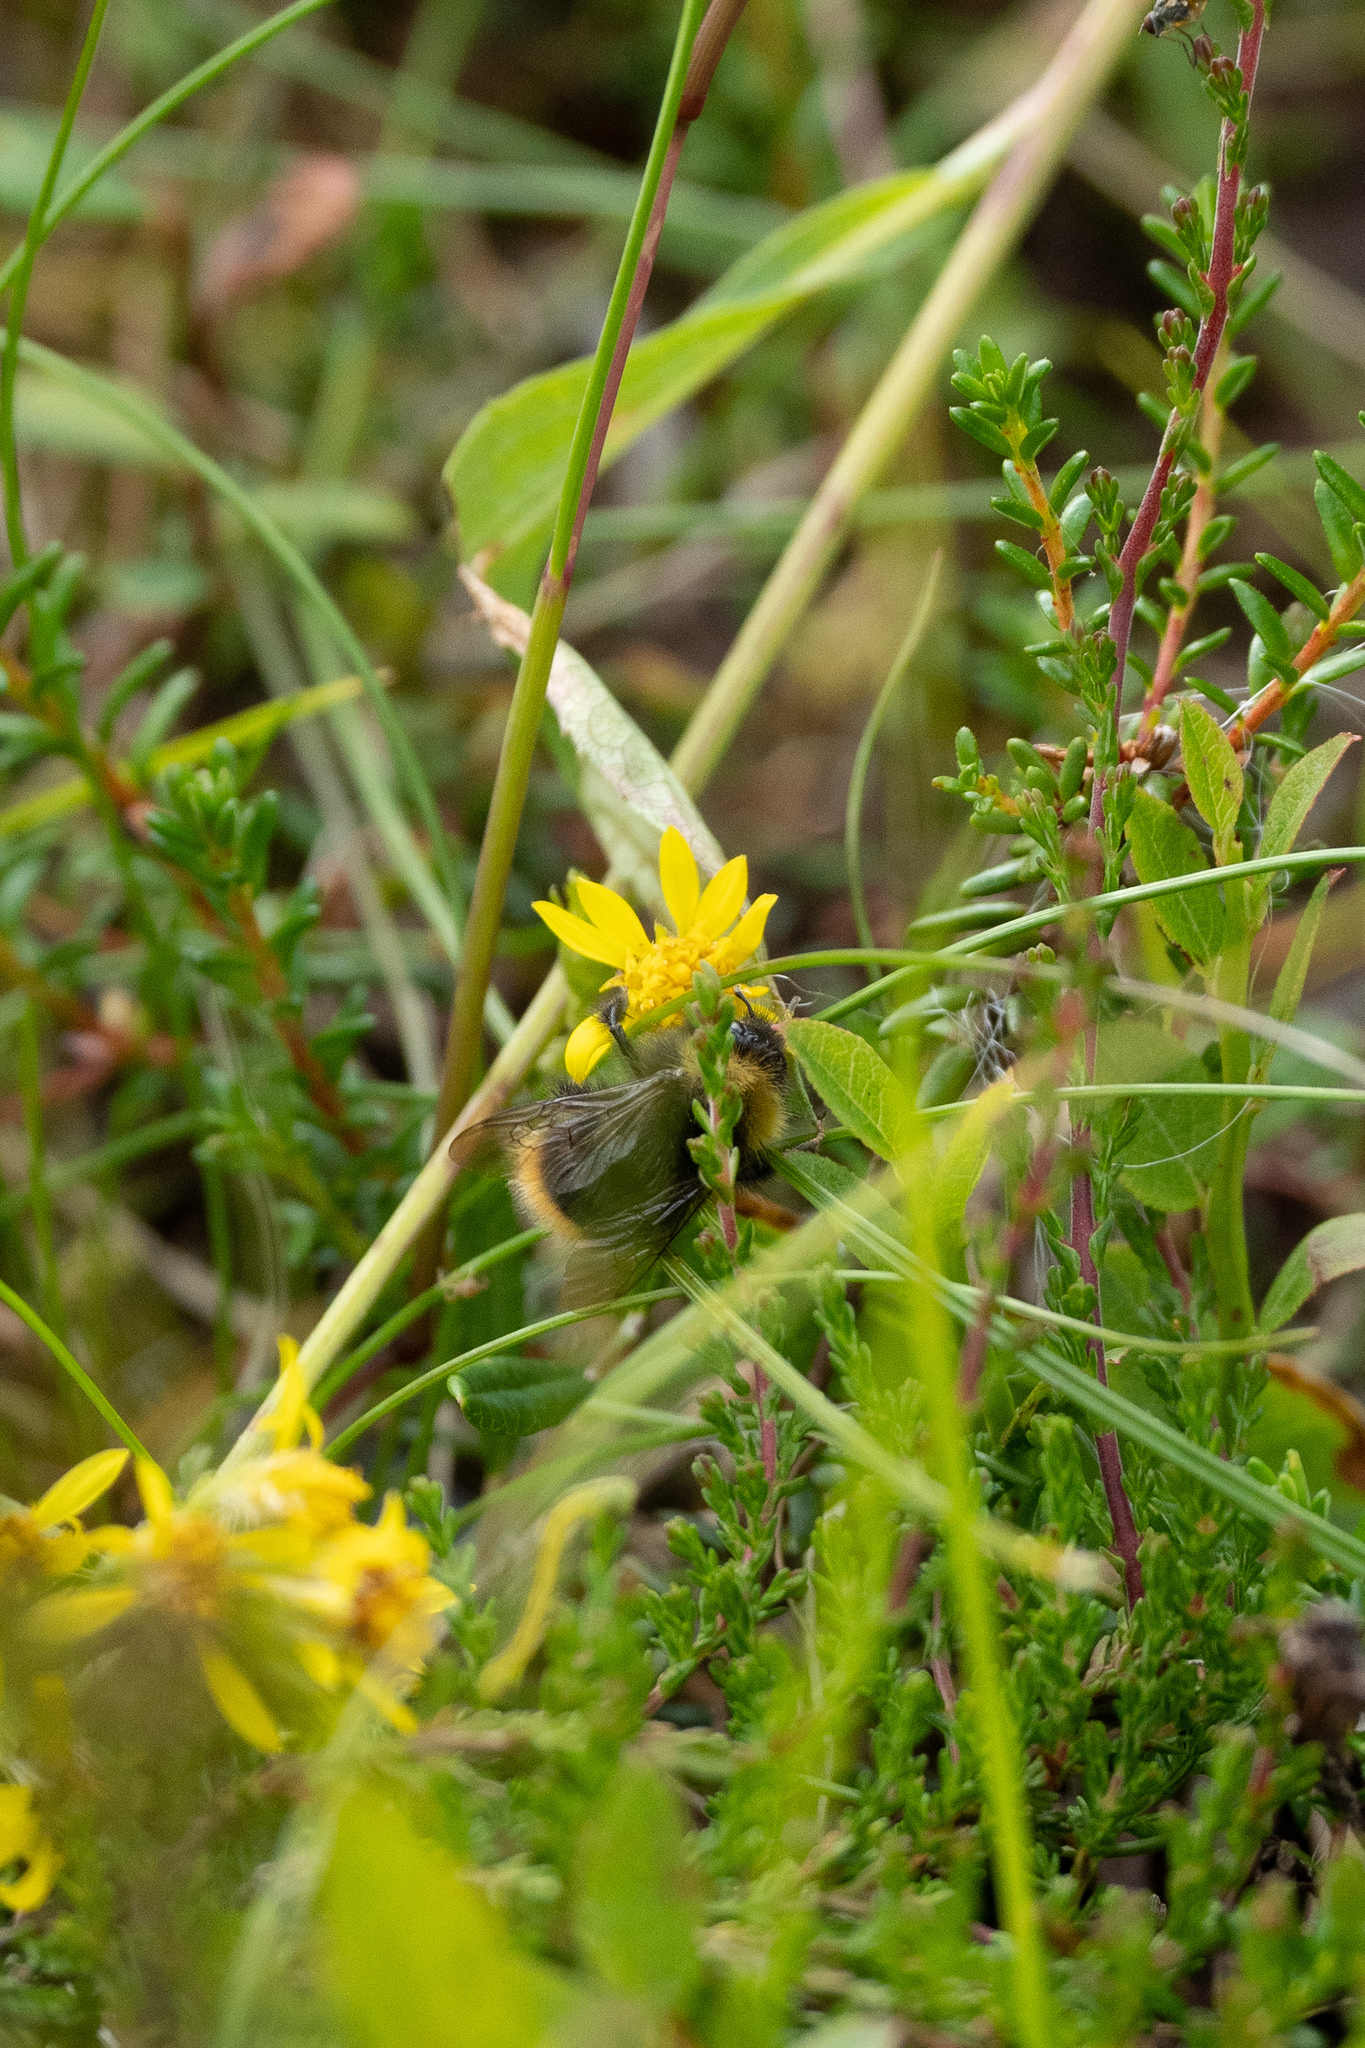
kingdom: Animalia
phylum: Arthropoda
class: Insecta
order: Hymenoptera
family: Apidae
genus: Bombus
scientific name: Bombus pratorum
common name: Early humble-bee
